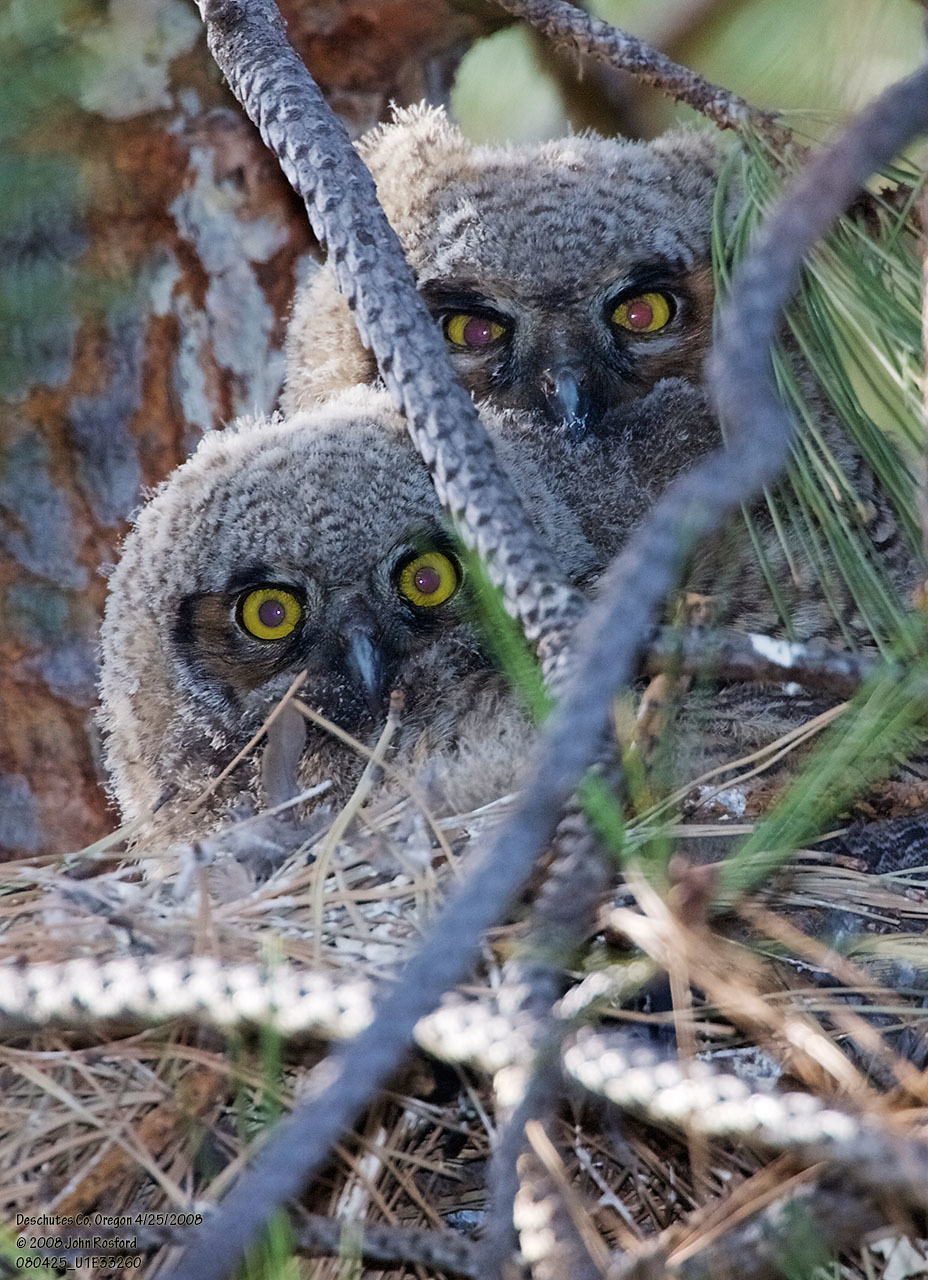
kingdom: Animalia
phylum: Chordata
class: Aves
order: Strigiformes
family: Strigidae
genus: Bubo
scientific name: Bubo virginianus
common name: Great horned owl
